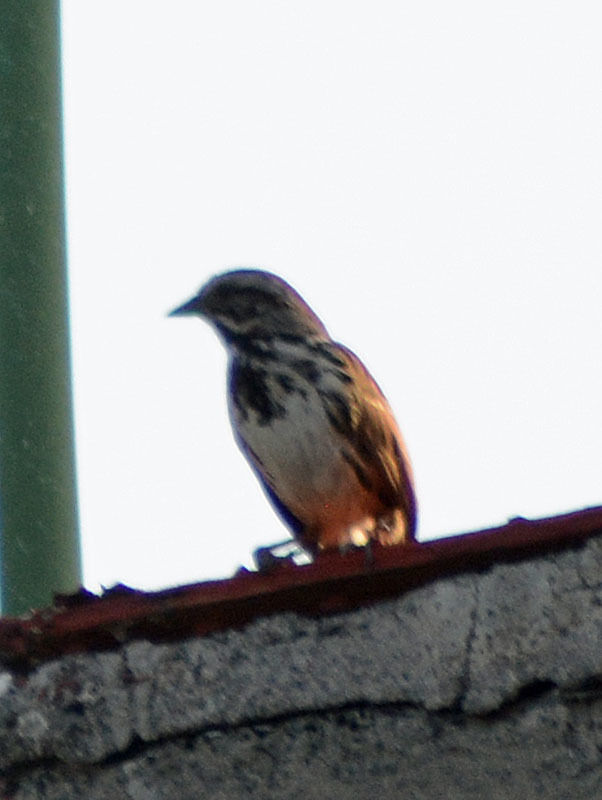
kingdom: Animalia
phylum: Chordata
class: Aves
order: Passeriformes
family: Passerellidae
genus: Melospiza
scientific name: Melospiza melodia
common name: Song sparrow
